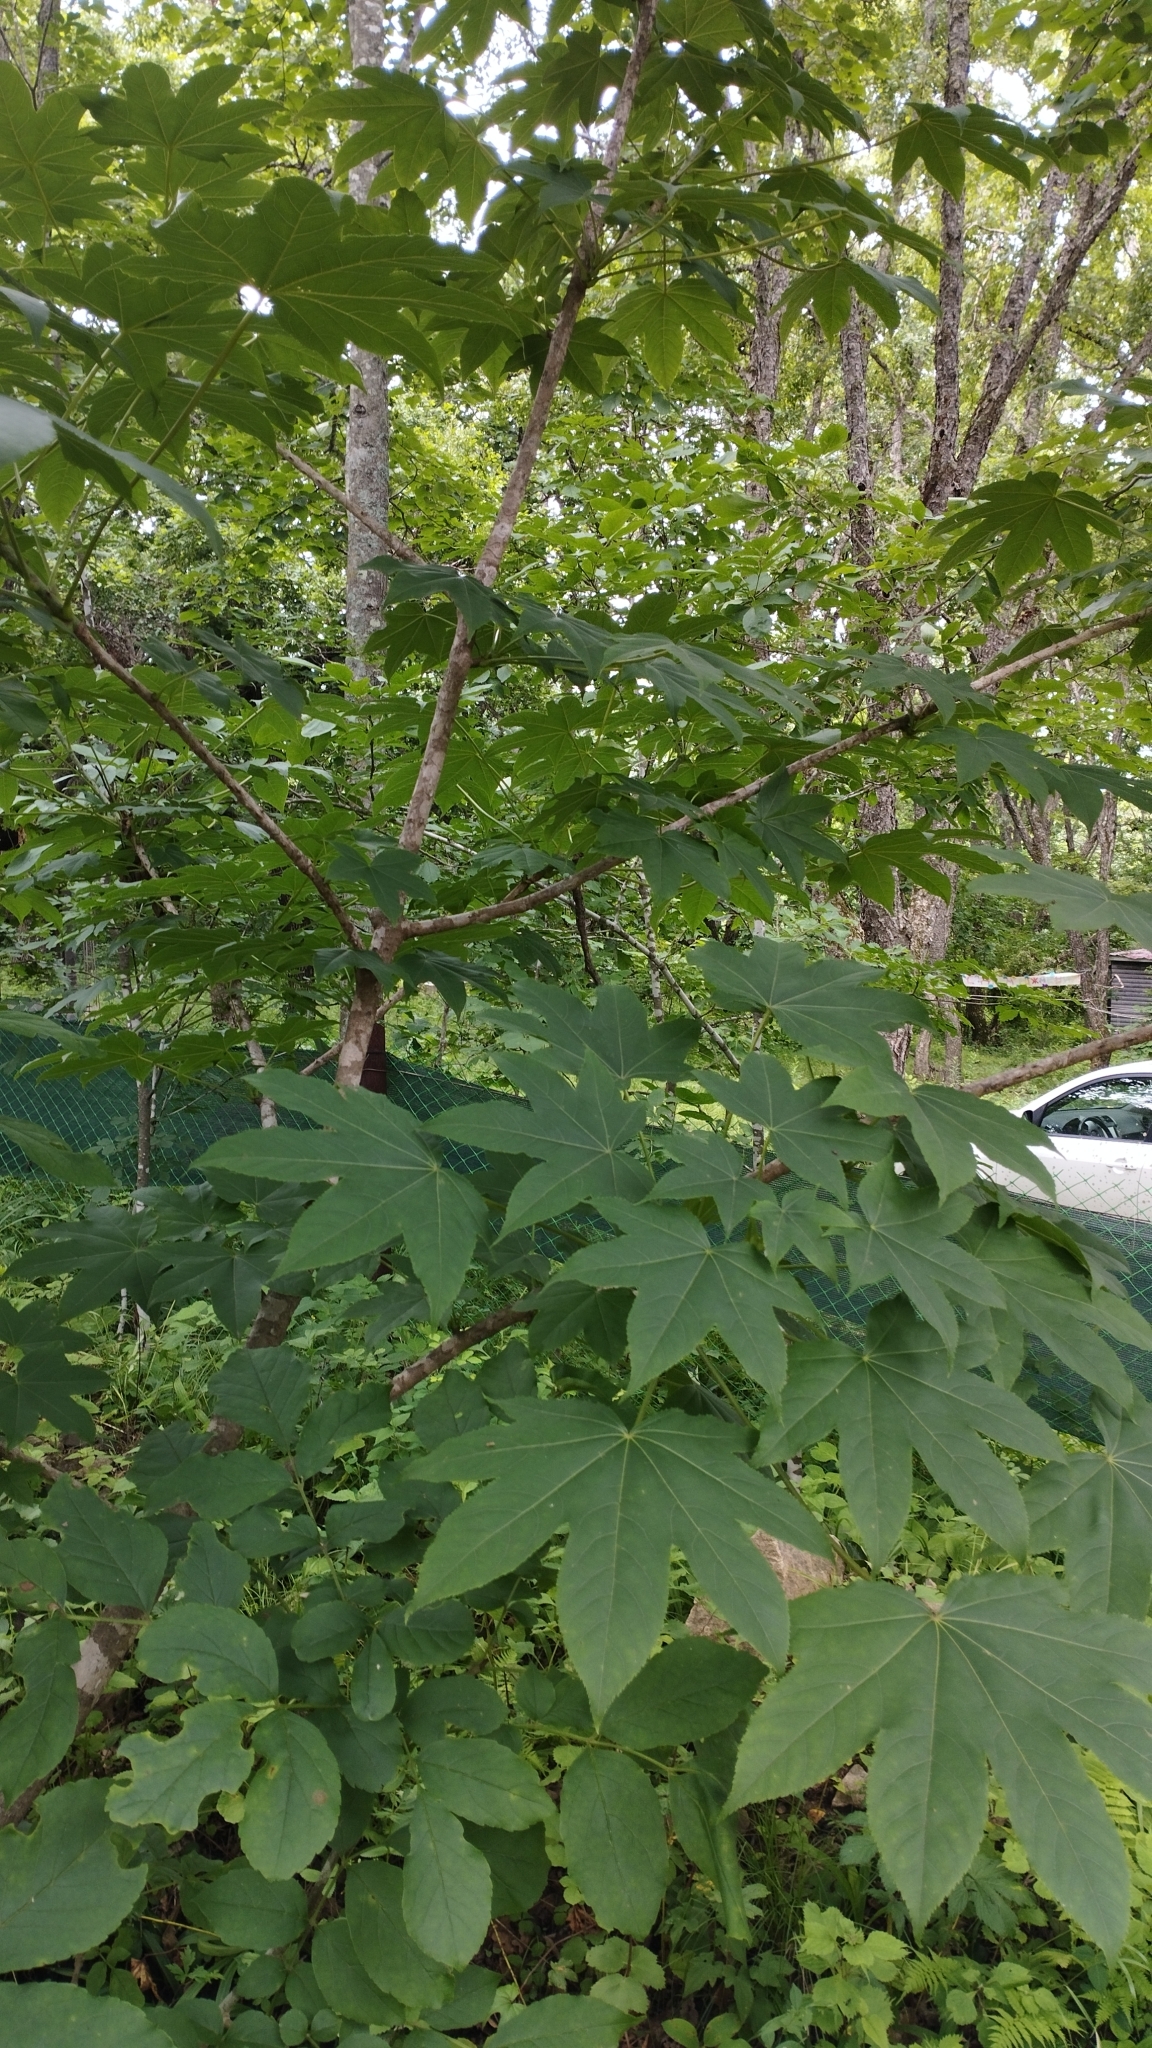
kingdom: Plantae
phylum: Tracheophyta
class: Magnoliopsida
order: Apiales
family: Araliaceae
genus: Kalopanax
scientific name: Kalopanax septemlobus
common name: Castor aralia
